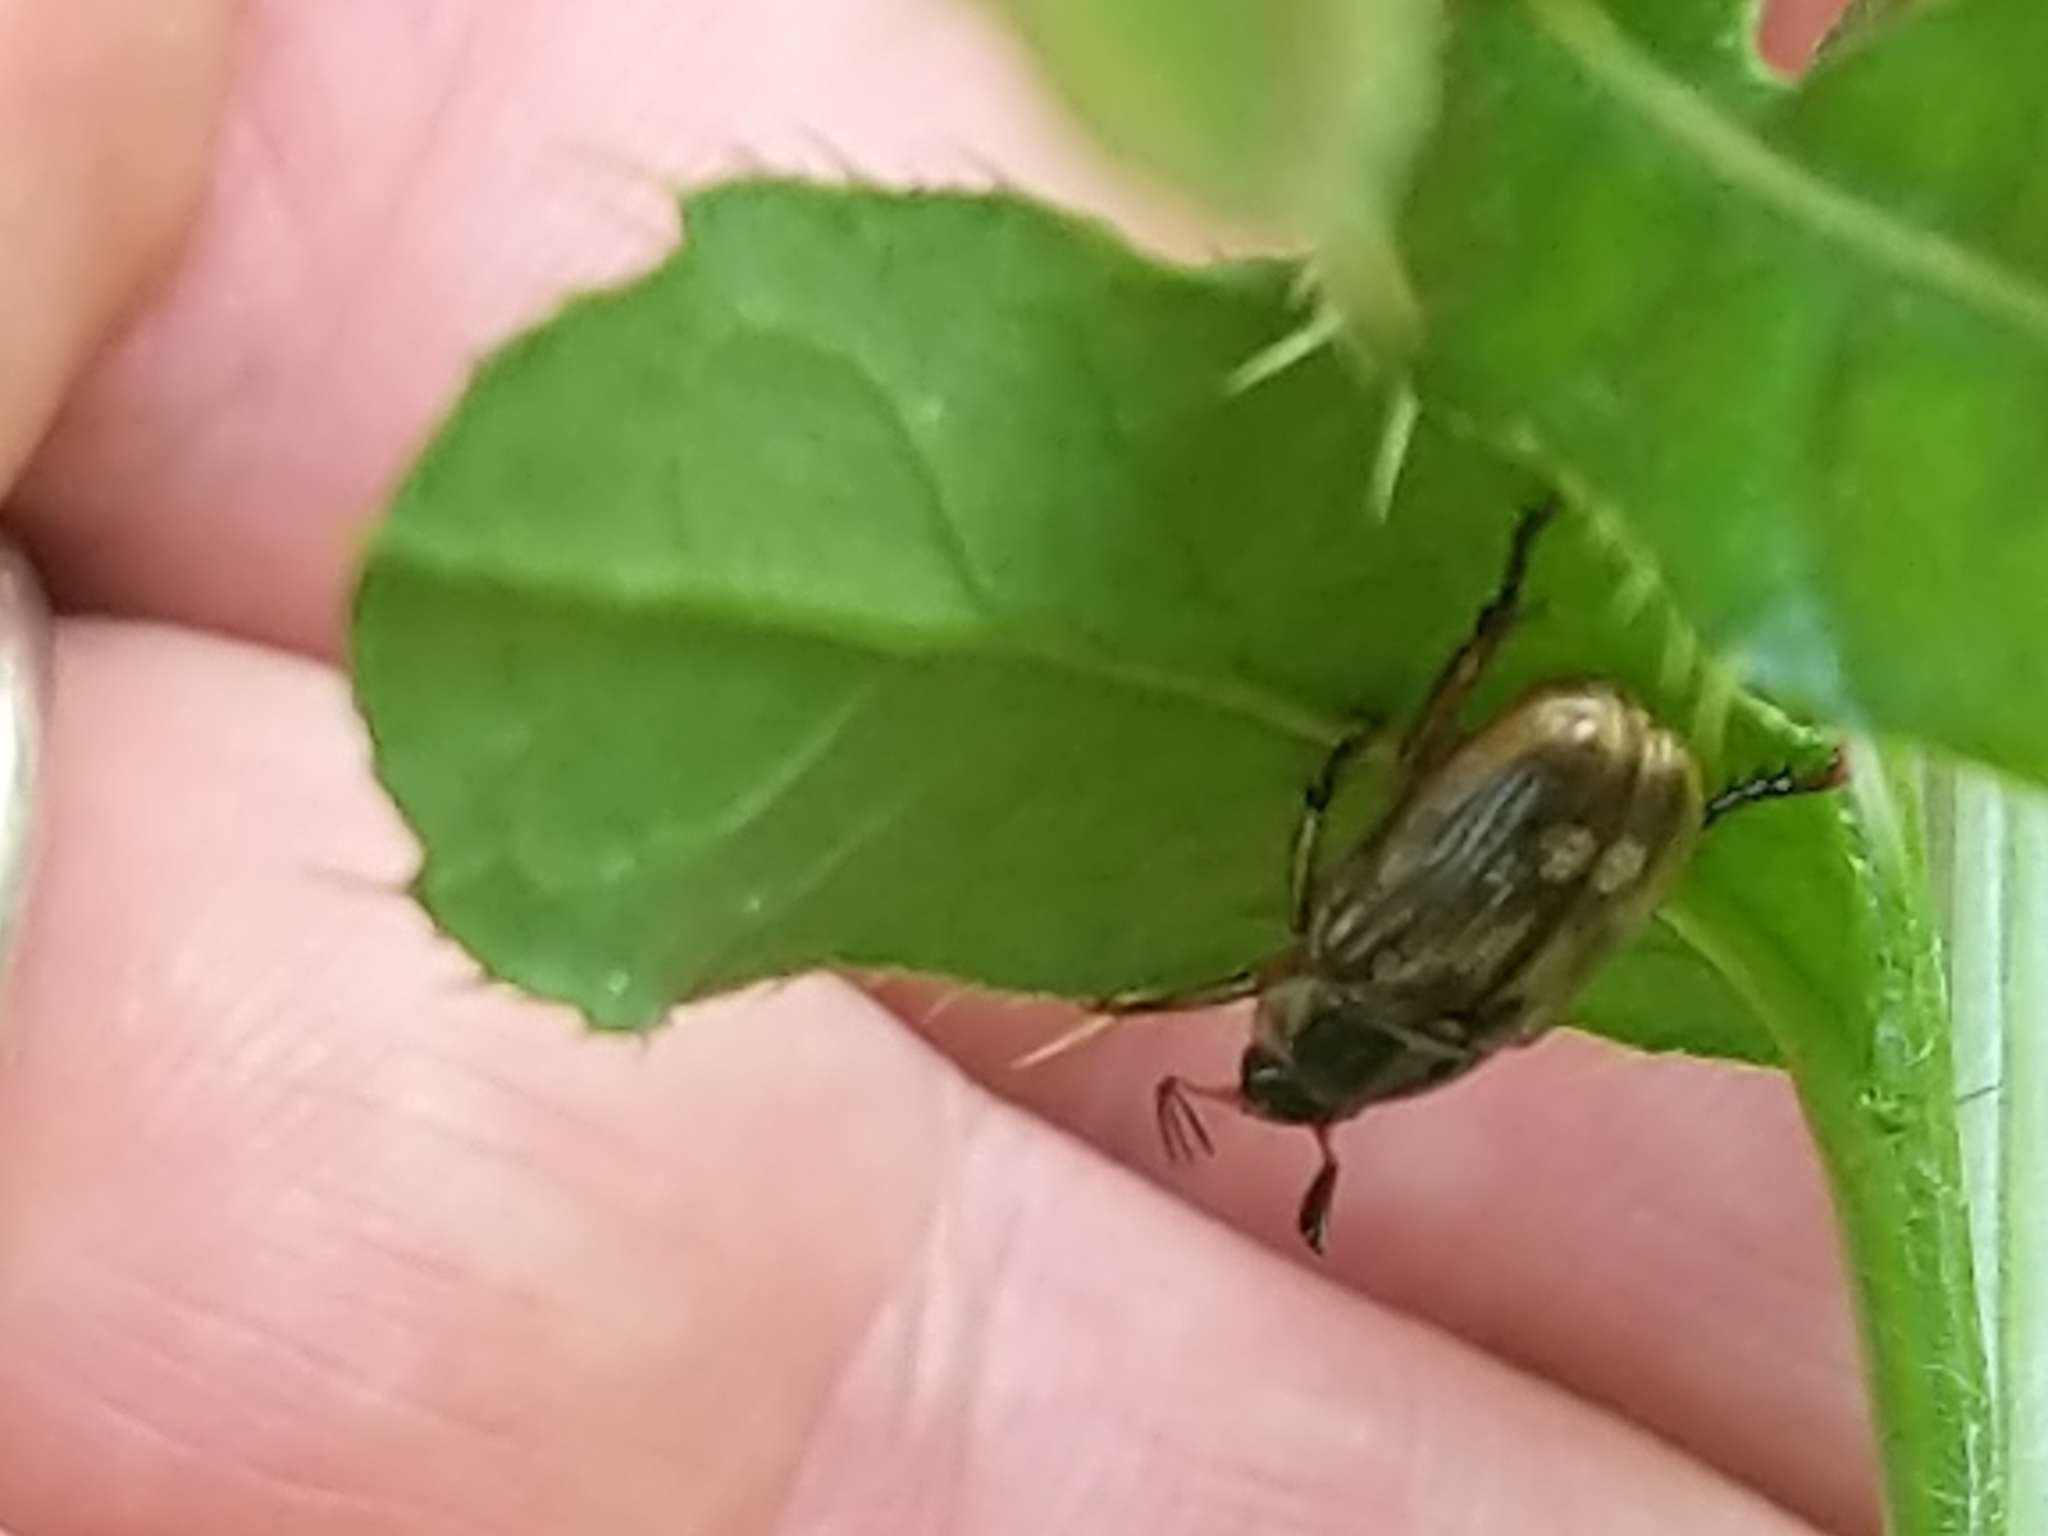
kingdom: Animalia
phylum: Arthropoda
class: Insecta
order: Coleoptera
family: Scarabaeidae
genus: Exomala
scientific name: Exomala orientalis
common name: Oriental beetle
